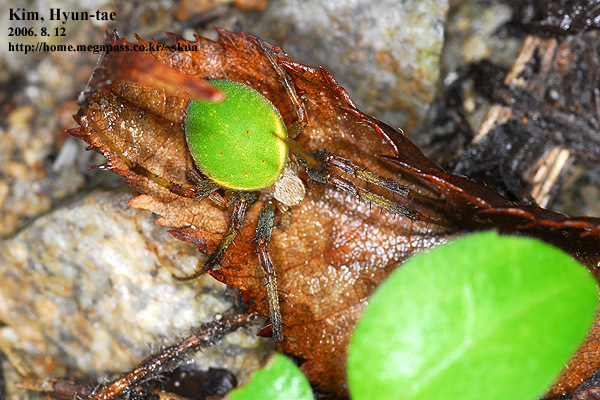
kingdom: Animalia
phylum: Arthropoda
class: Arachnida
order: Araneae
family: Araneidae
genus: Neoscona
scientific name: Neoscona scylloides
